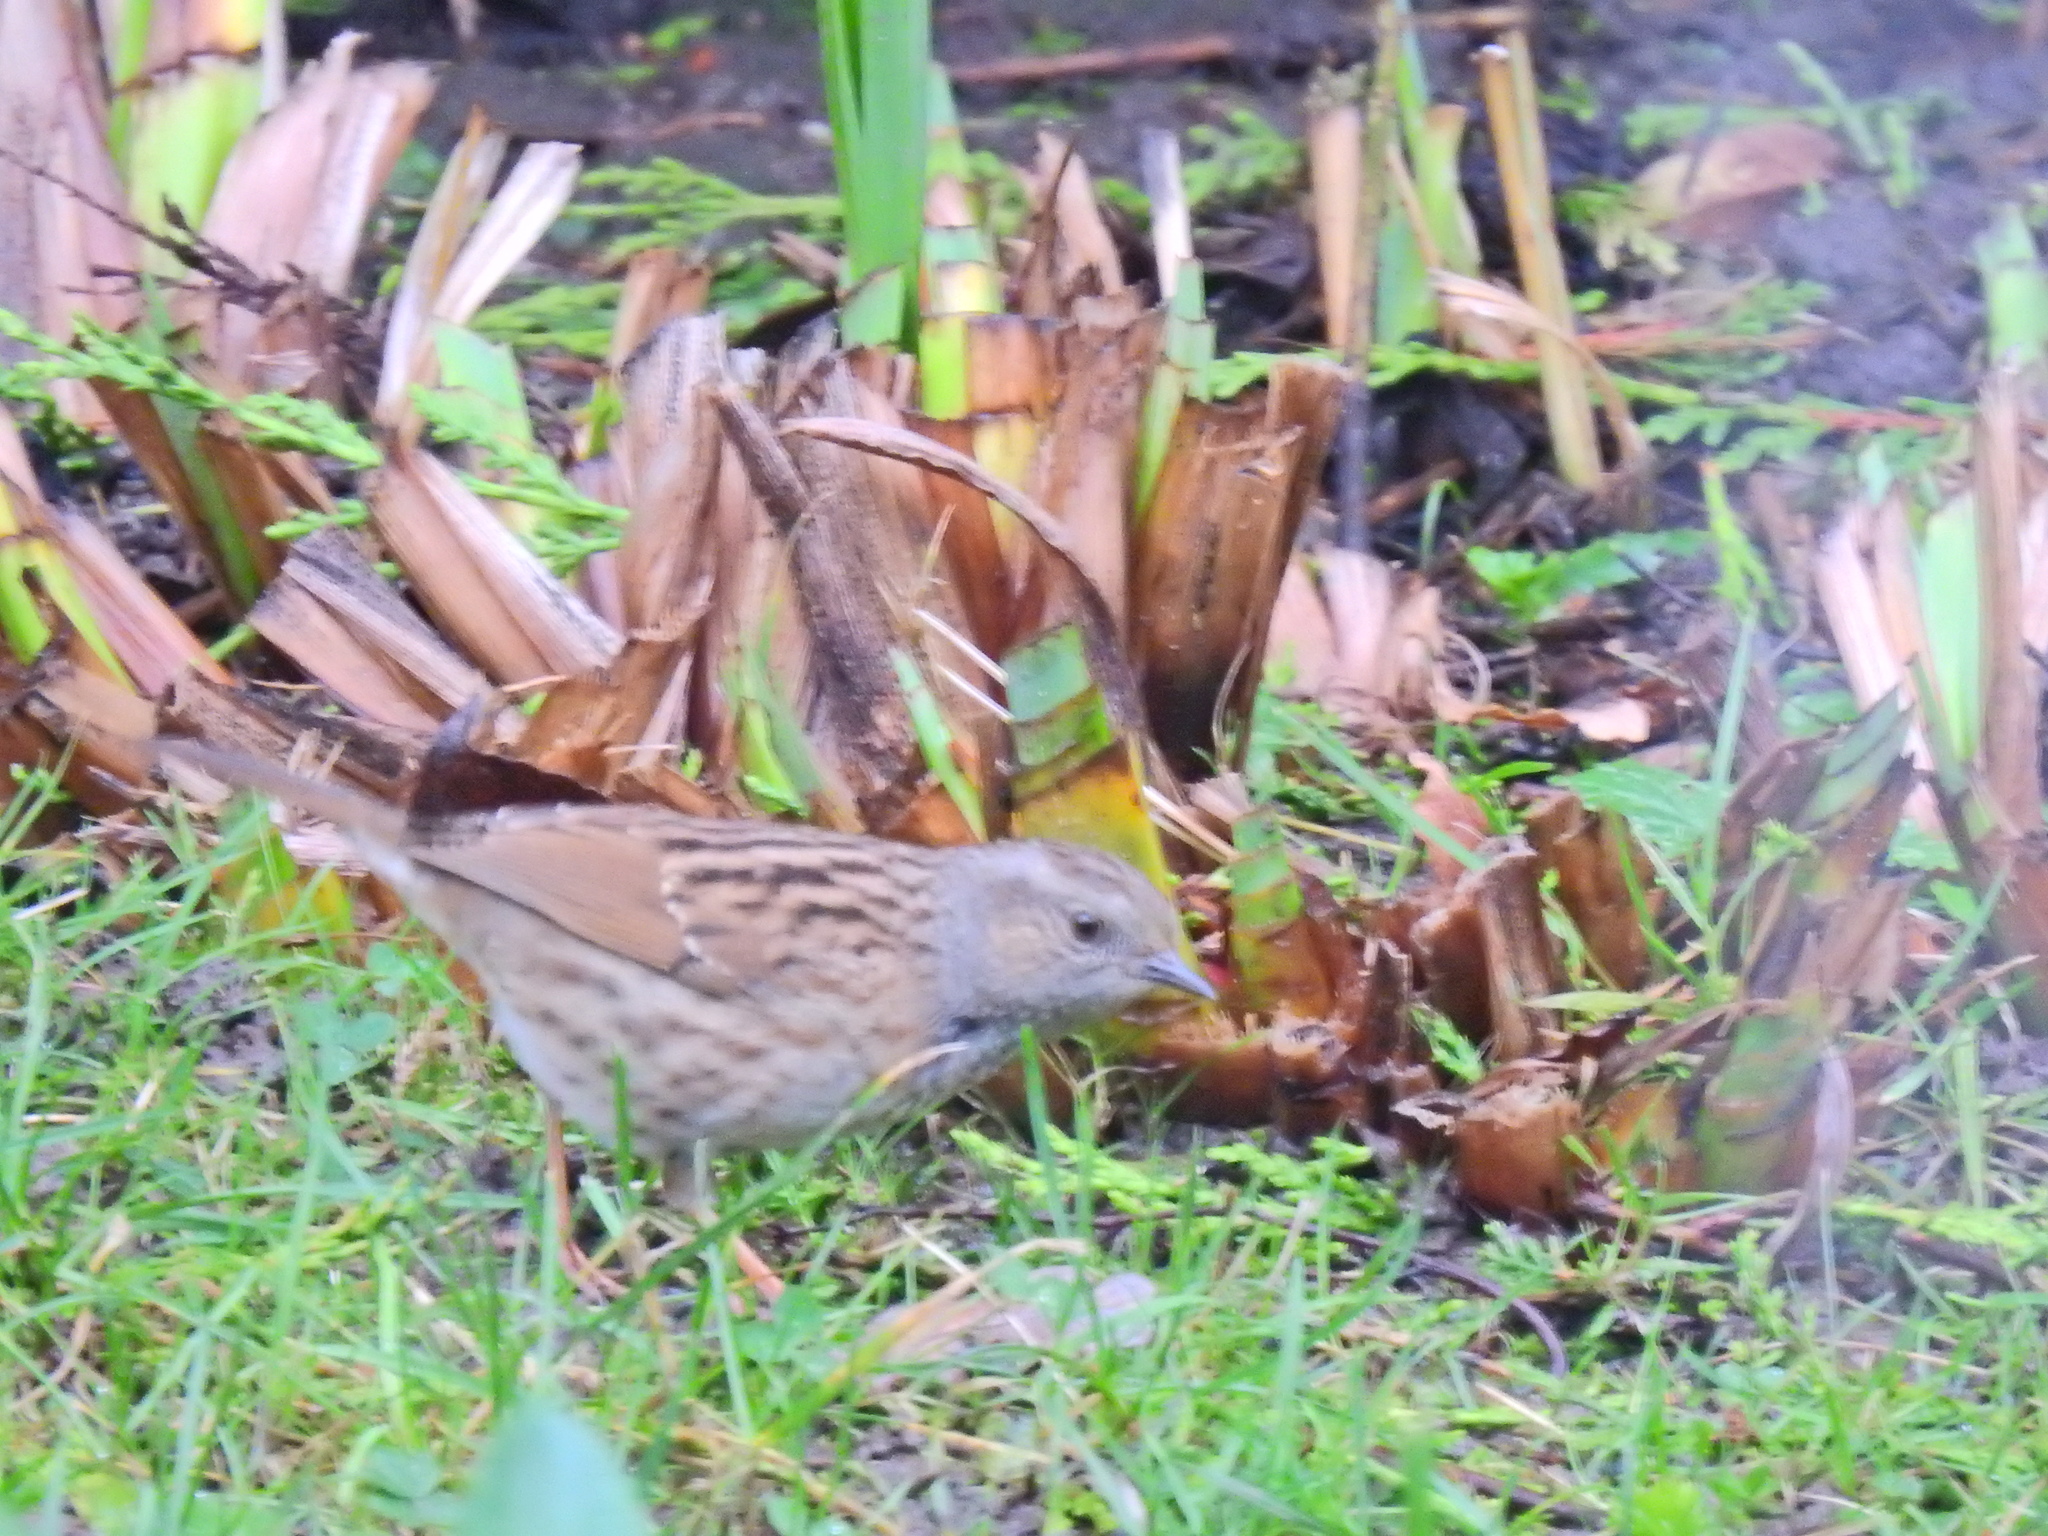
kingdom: Animalia
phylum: Chordata
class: Aves
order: Passeriformes
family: Prunellidae
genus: Prunella
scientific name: Prunella modularis
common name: Dunnock
